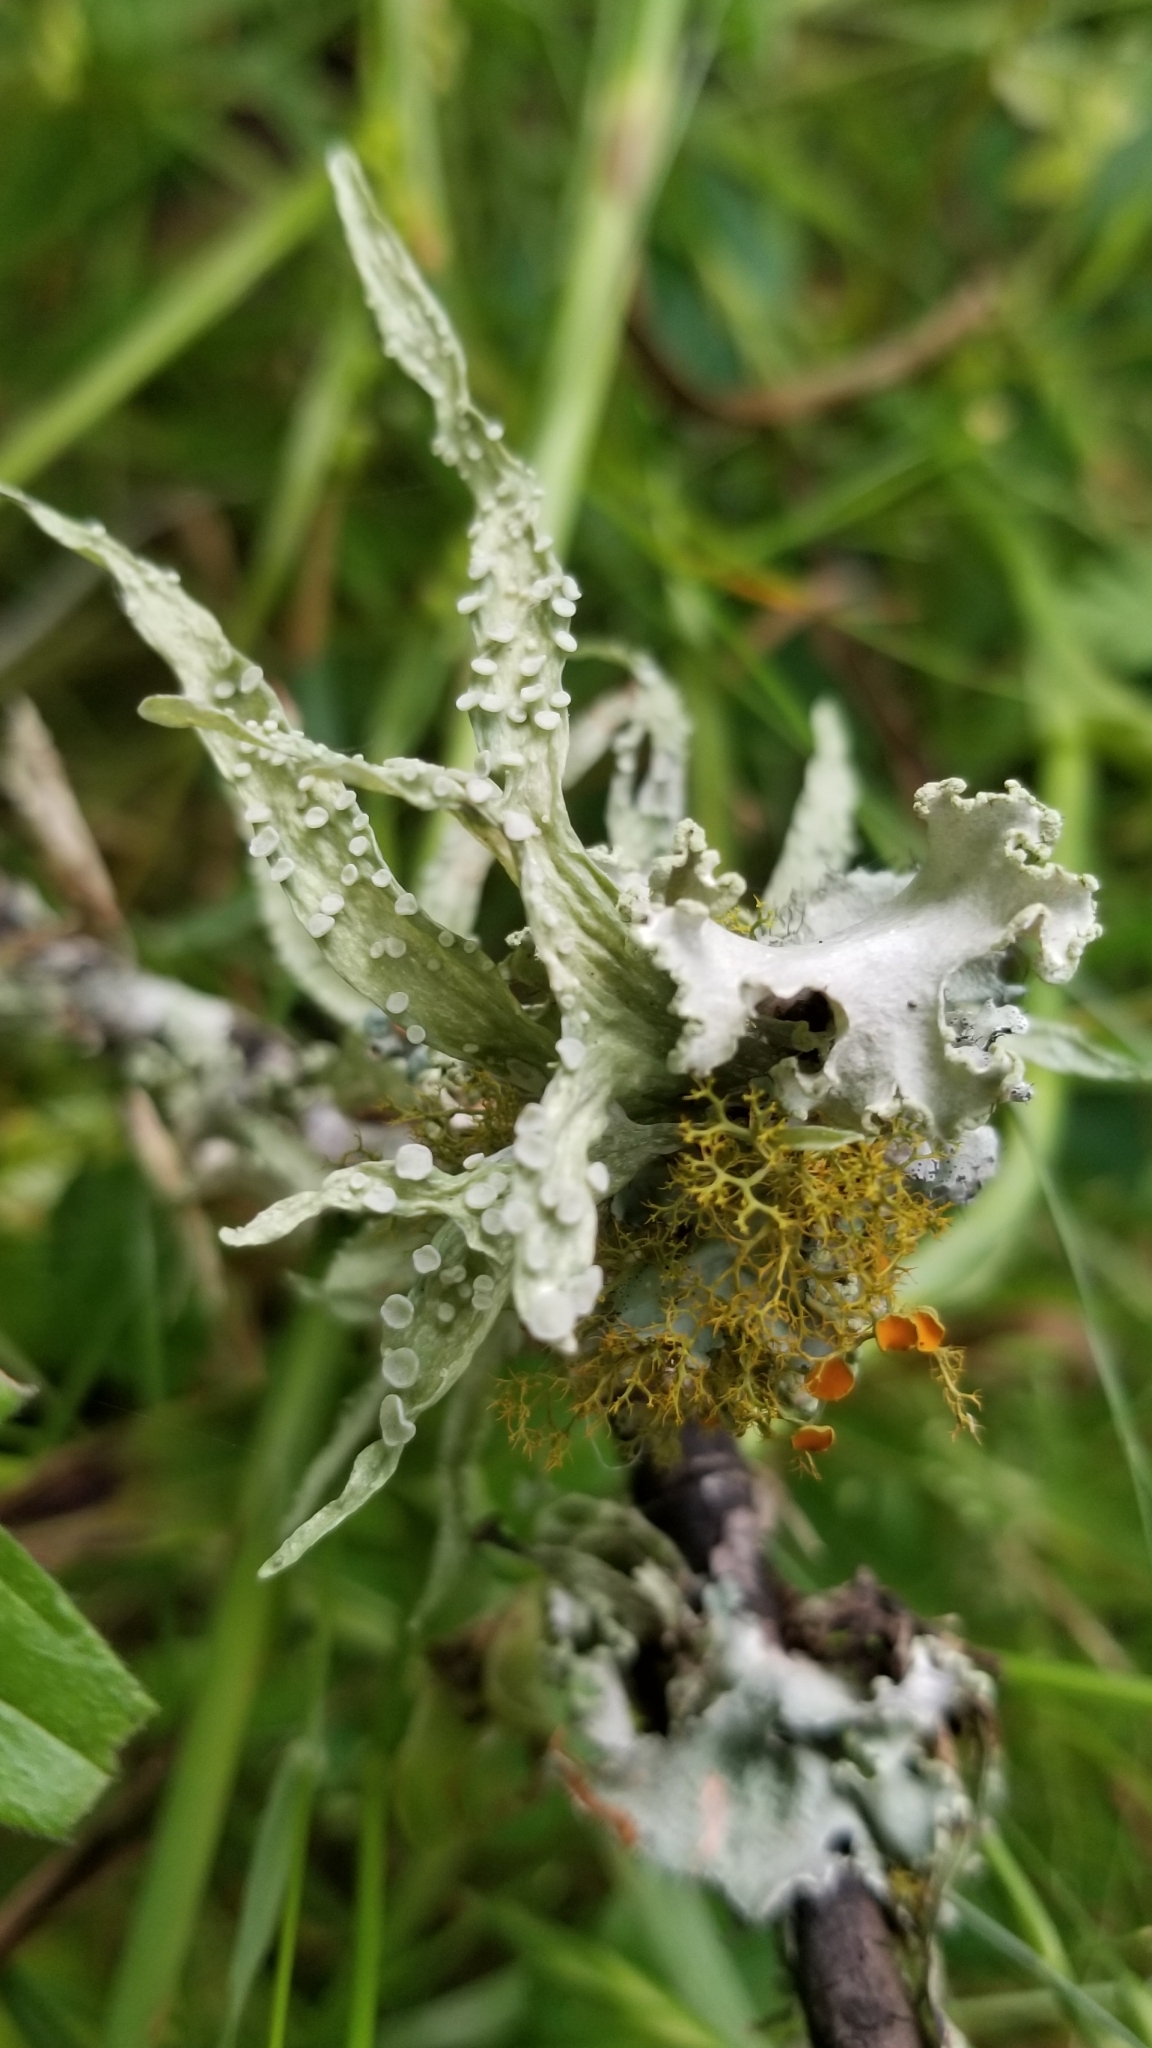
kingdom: Fungi
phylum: Ascomycota
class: Lecanoromycetes
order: Lecanorales
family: Ramalinaceae
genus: Ramalina
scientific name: Ramalina celastri
